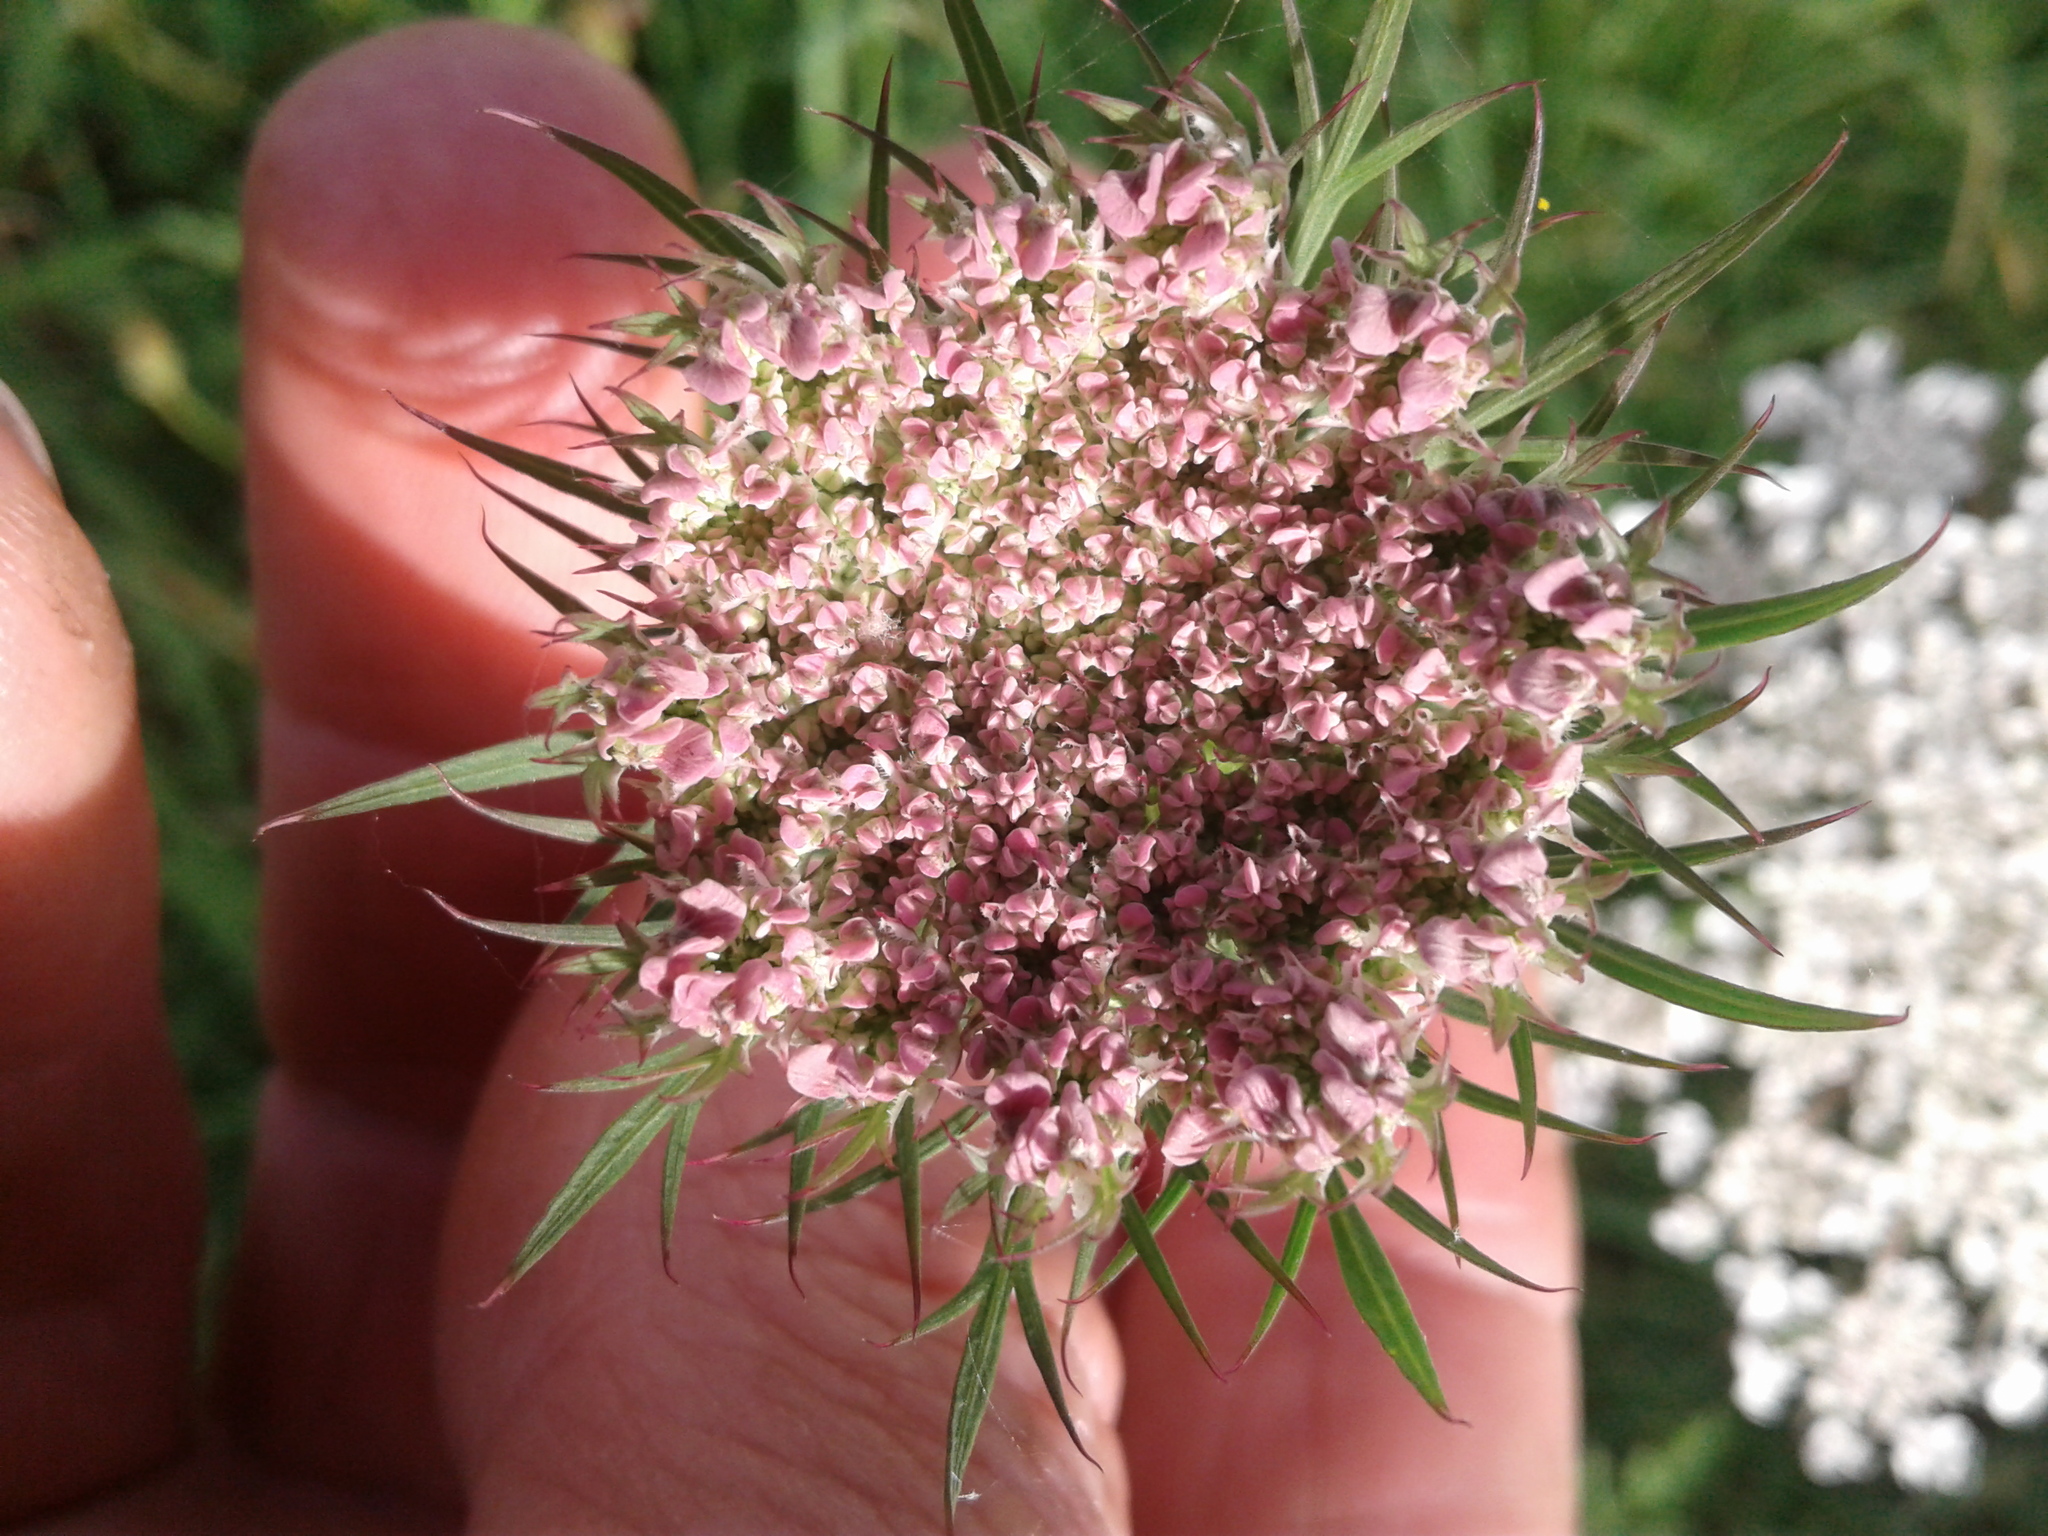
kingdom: Plantae
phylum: Tracheophyta
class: Magnoliopsida
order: Apiales
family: Apiaceae
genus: Daucus
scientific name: Daucus carota
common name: Wild carrot
